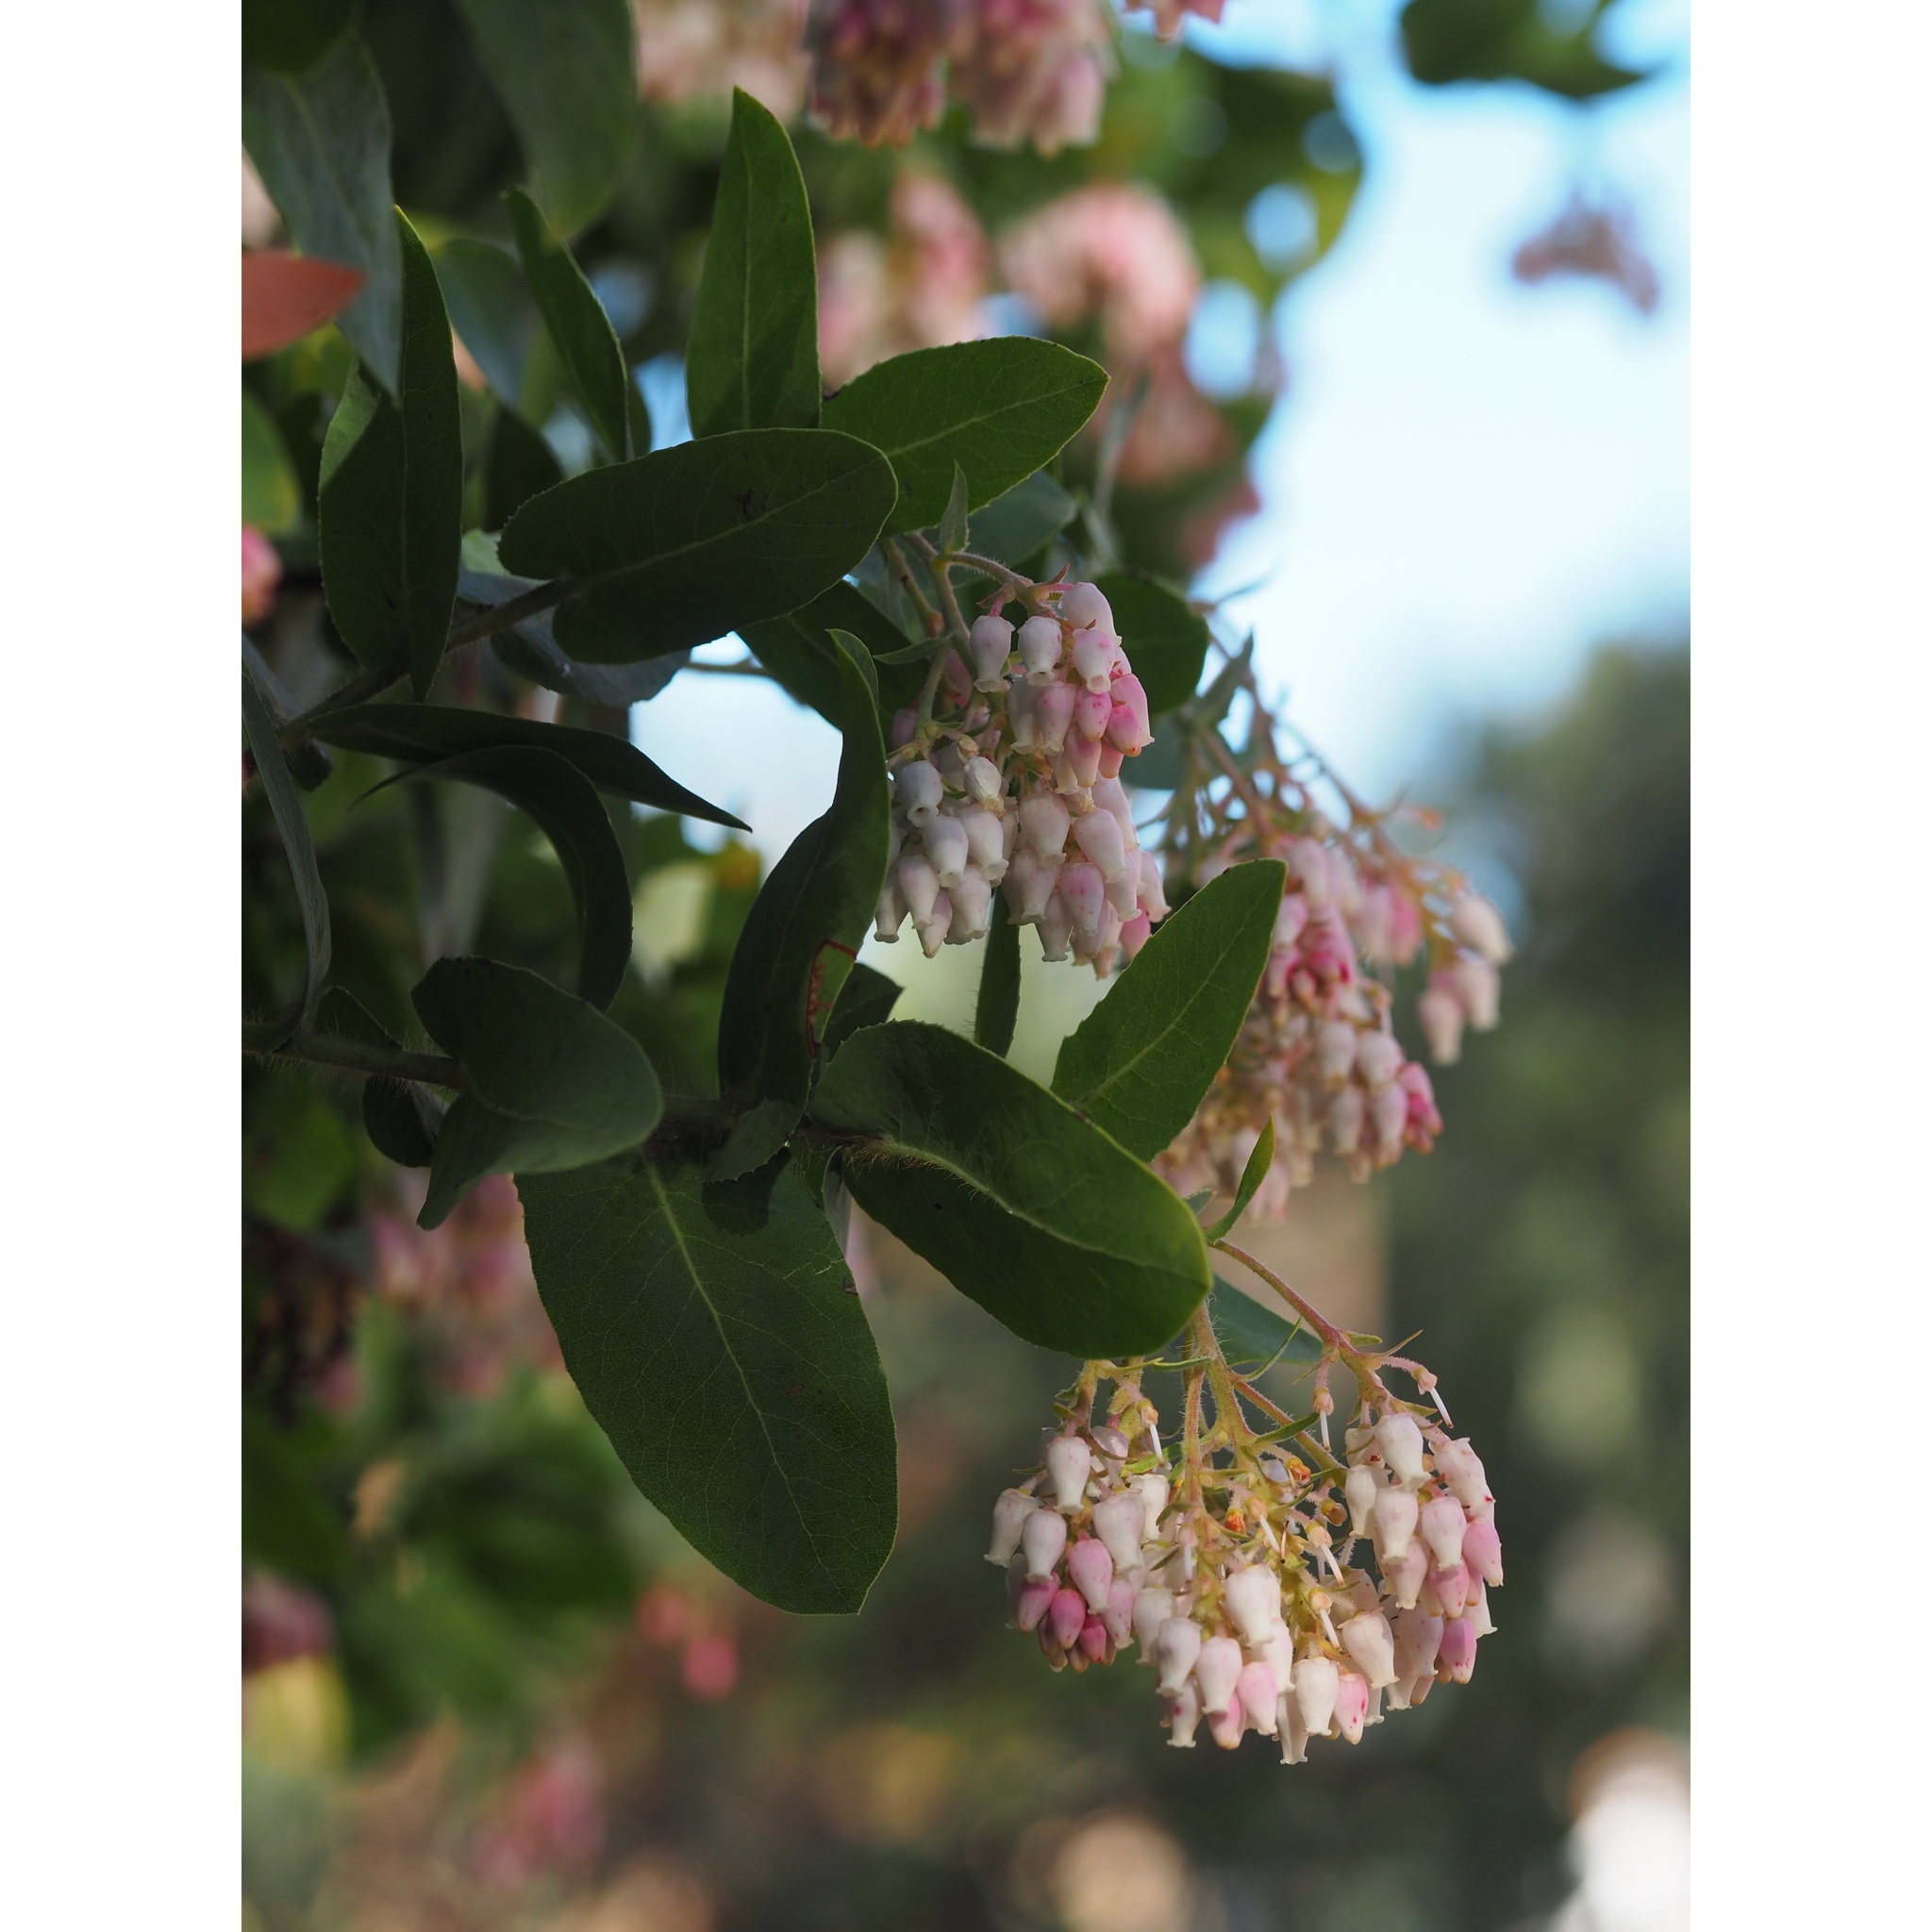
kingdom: Plantae
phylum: Tracheophyta
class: Magnoliopsida
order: Ericales
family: Ericaceae
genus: Arctostaphylos
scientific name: Arctostaphylos andersonii
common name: Santa cruz manzanita
